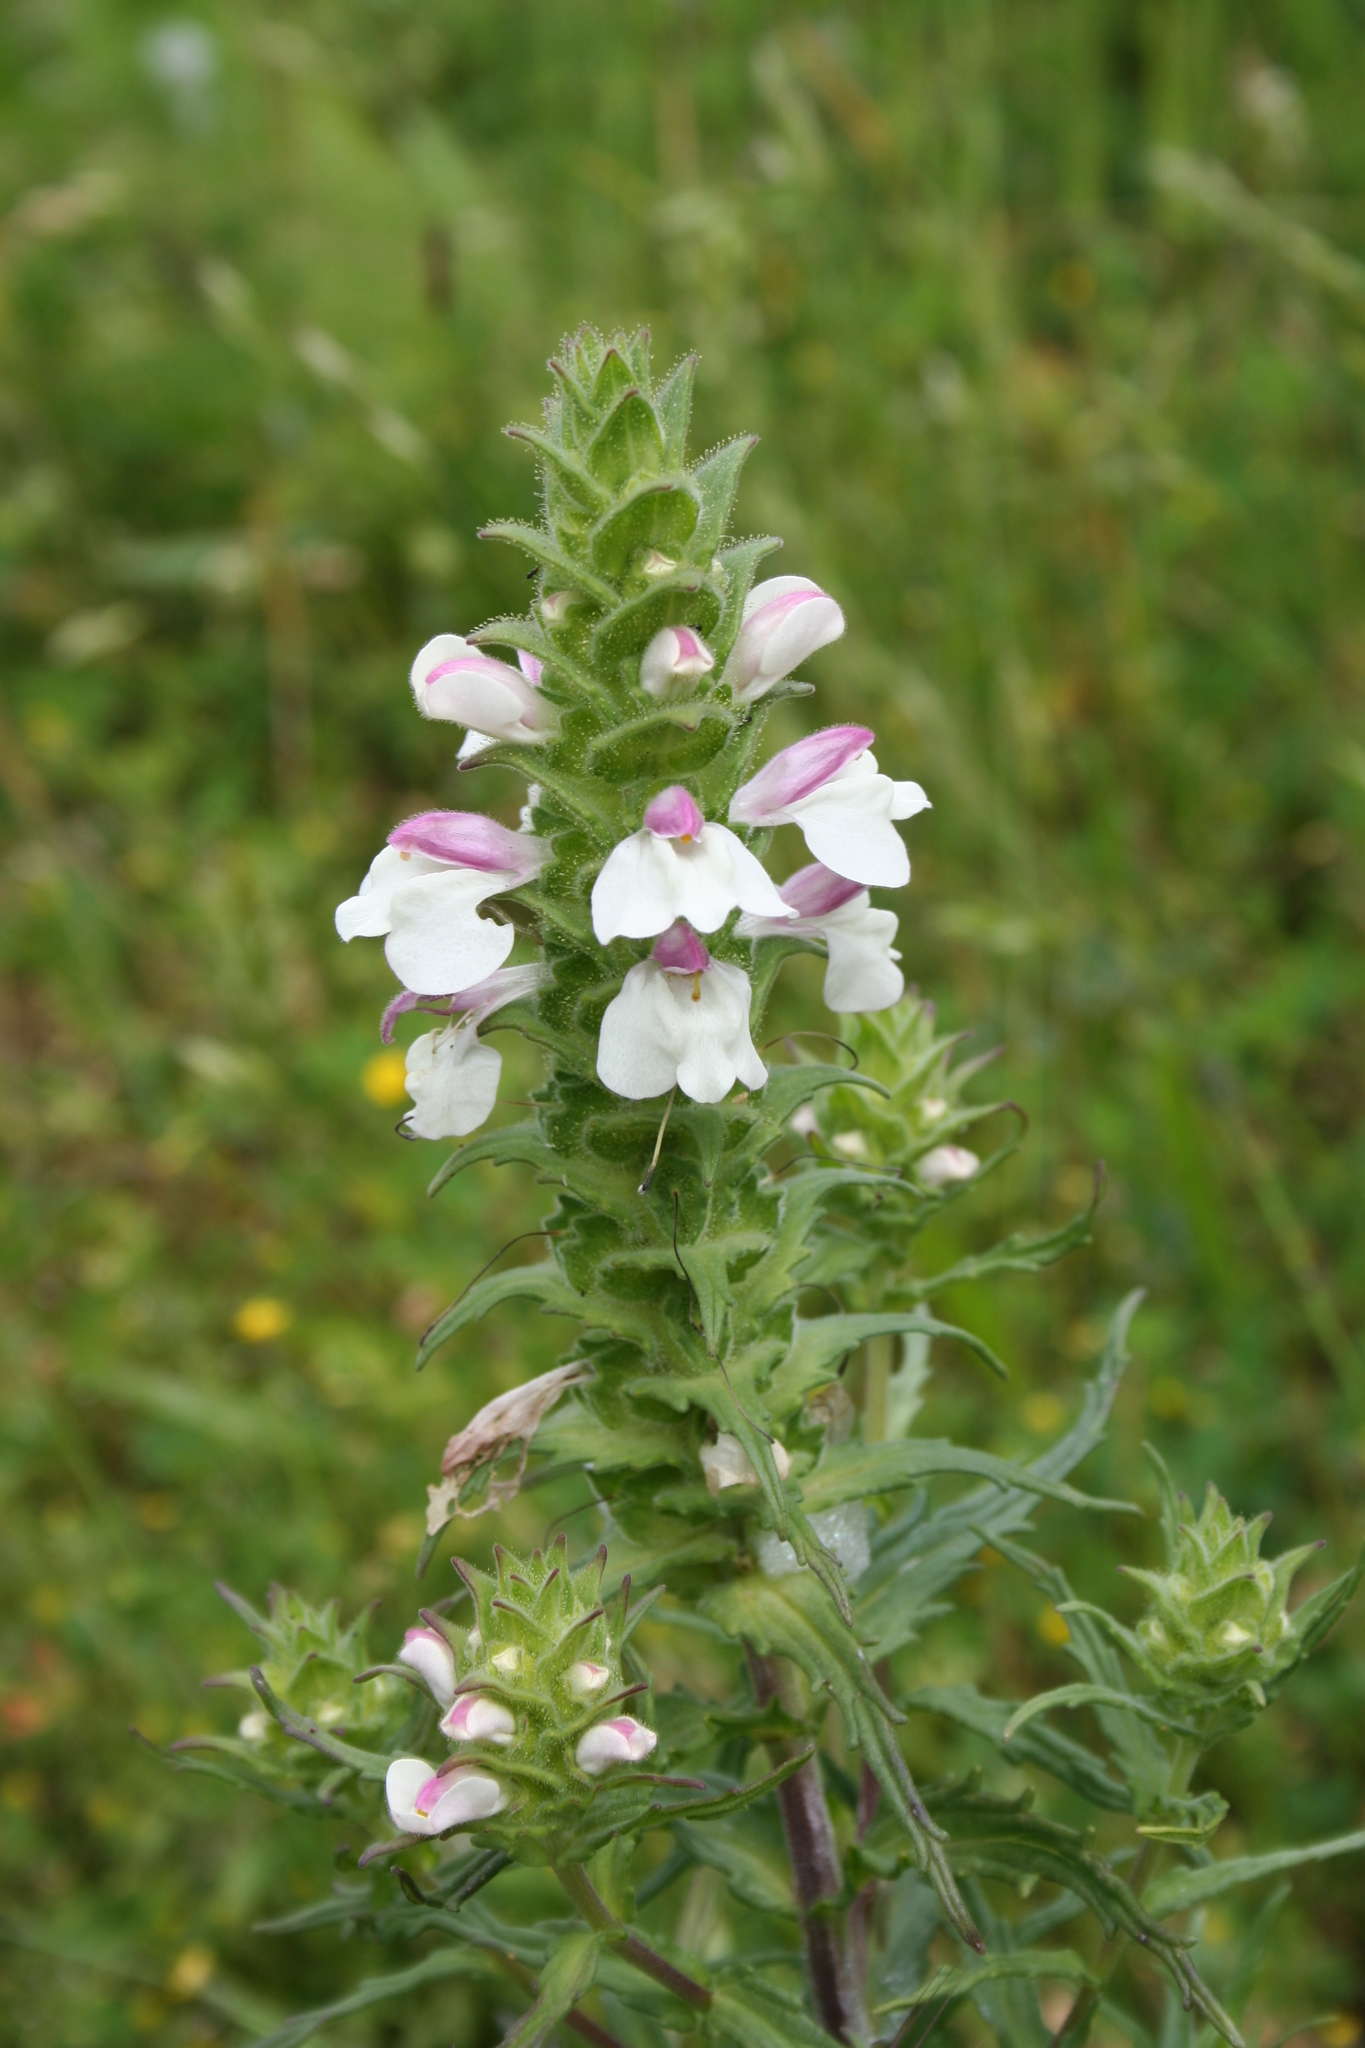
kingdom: Plantae
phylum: Tracheophyta
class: Magnoliopsida
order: Lamiales
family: Orobanchaceae
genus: Bellardia
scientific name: Bellardia trixago
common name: Mediterranean lineseed
